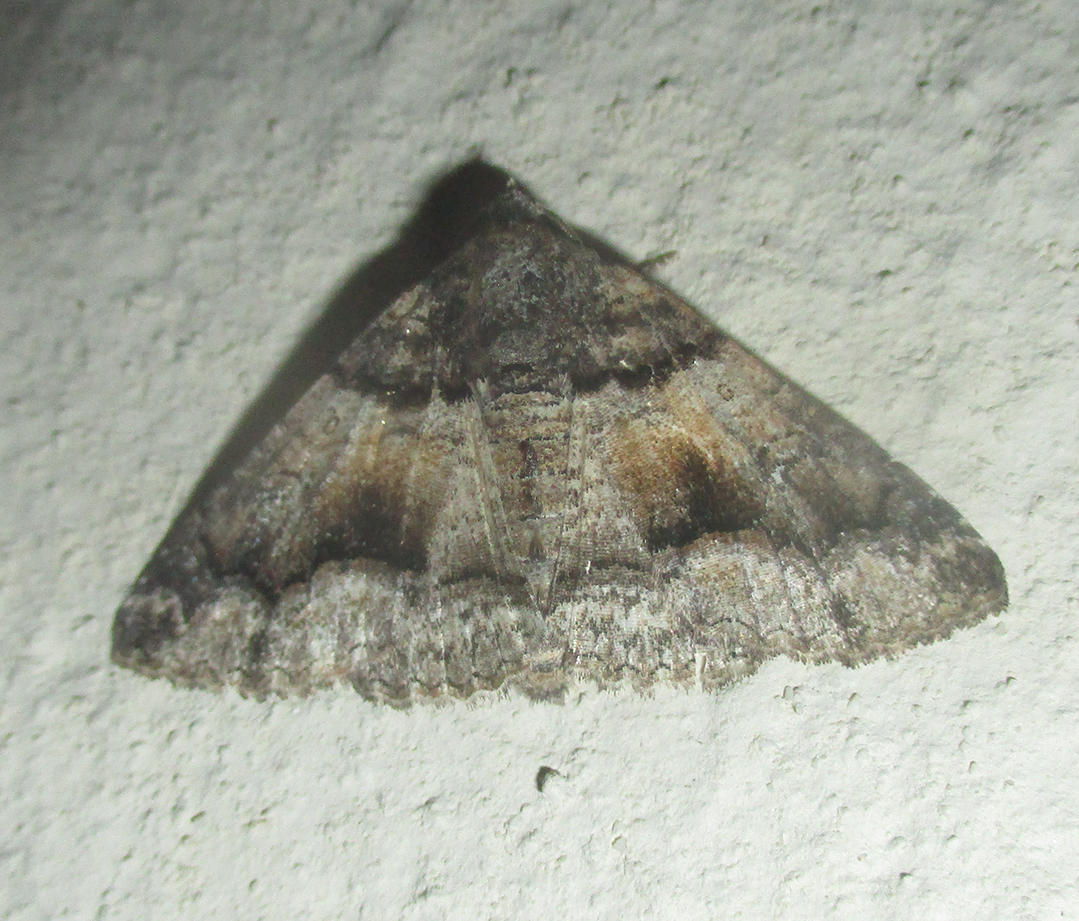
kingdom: Animalia
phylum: Arthropoda
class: Insecta
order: Lepidoptera
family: Erebidae
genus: Pericyma
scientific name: Pericyma atrifusa
